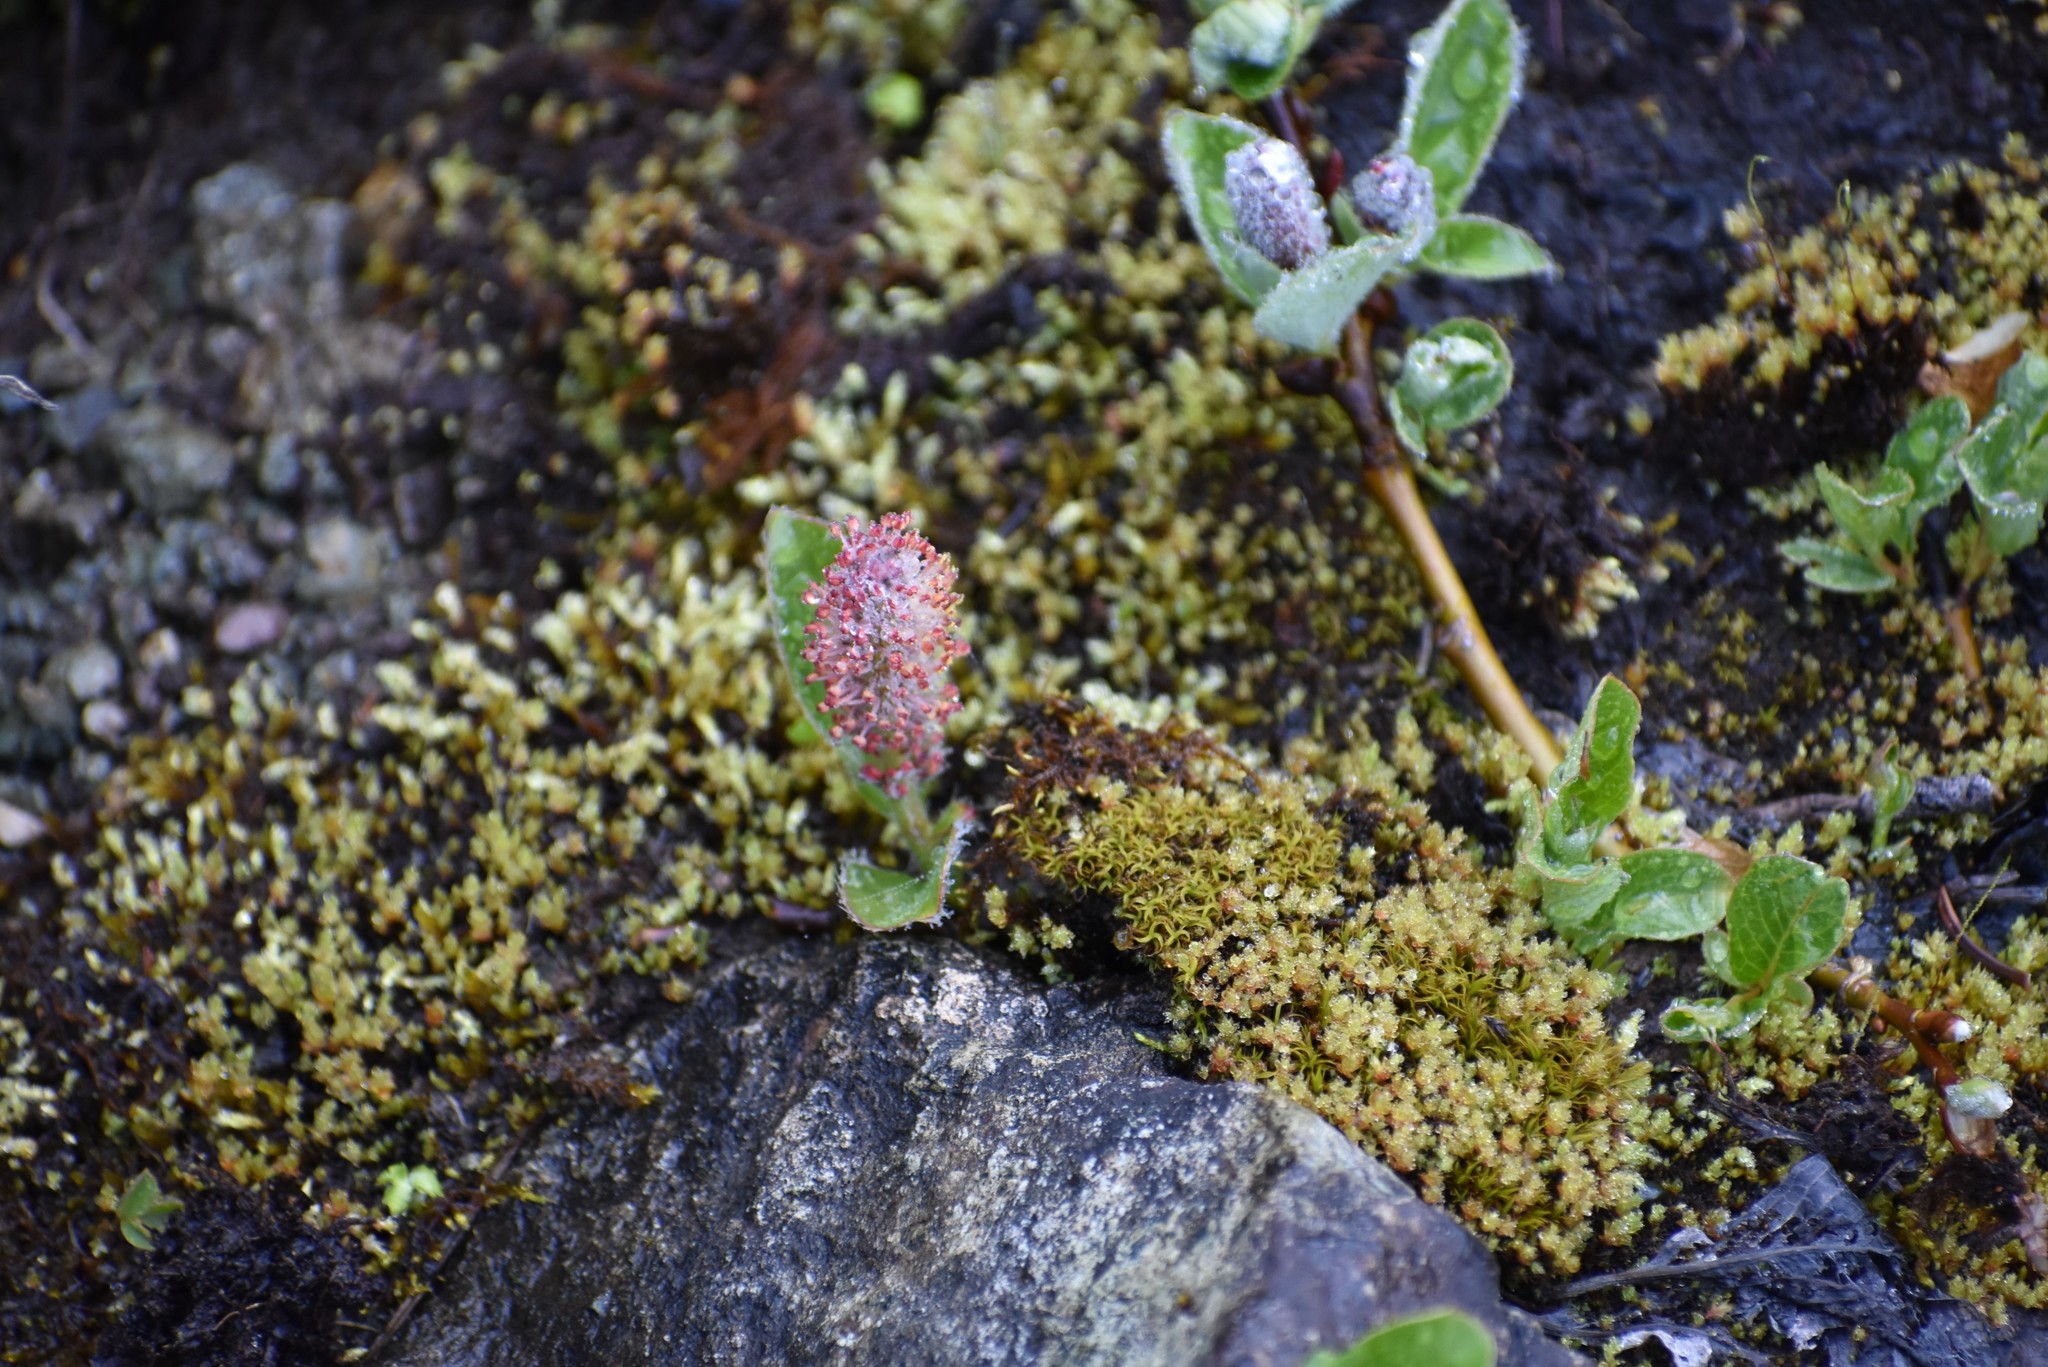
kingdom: Plantae
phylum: Tracheophyta
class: Magnoliopsida
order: Malpighiales
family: Salicaceae
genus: Salix
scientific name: Salix arctica
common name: Arctic willow
